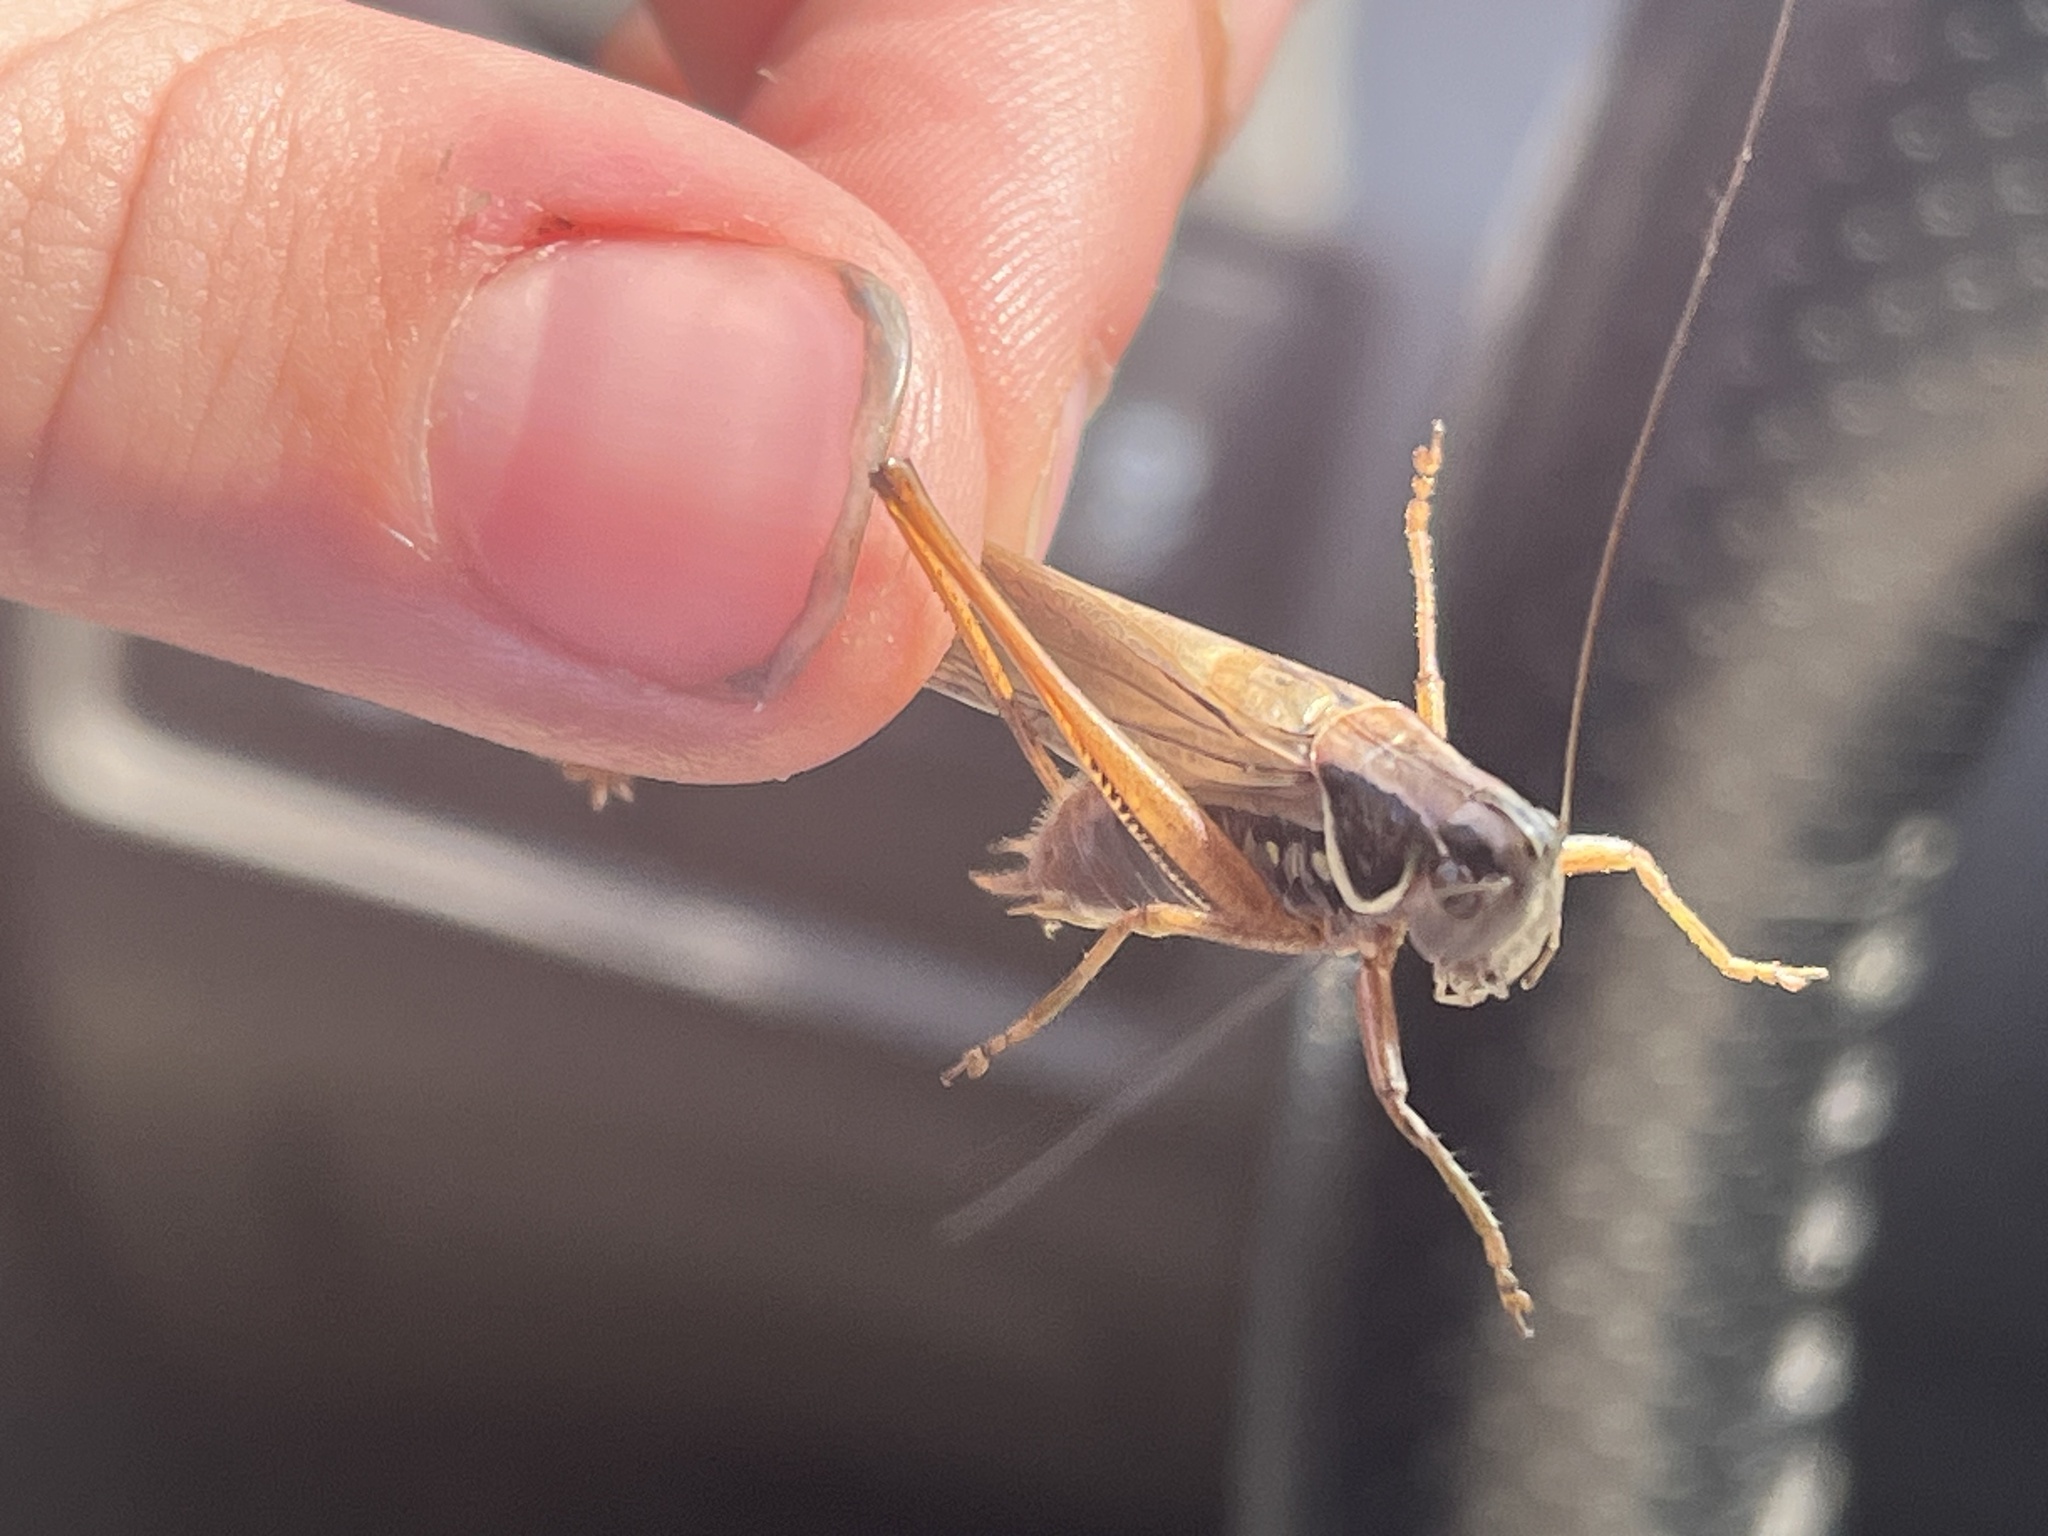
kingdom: Animalia
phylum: Arthropoda
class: Insecta
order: Orthoptera
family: Tettigoniidae
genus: Roeseliana
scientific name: Roeseliana roeselii
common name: Roesel's bush cricket
